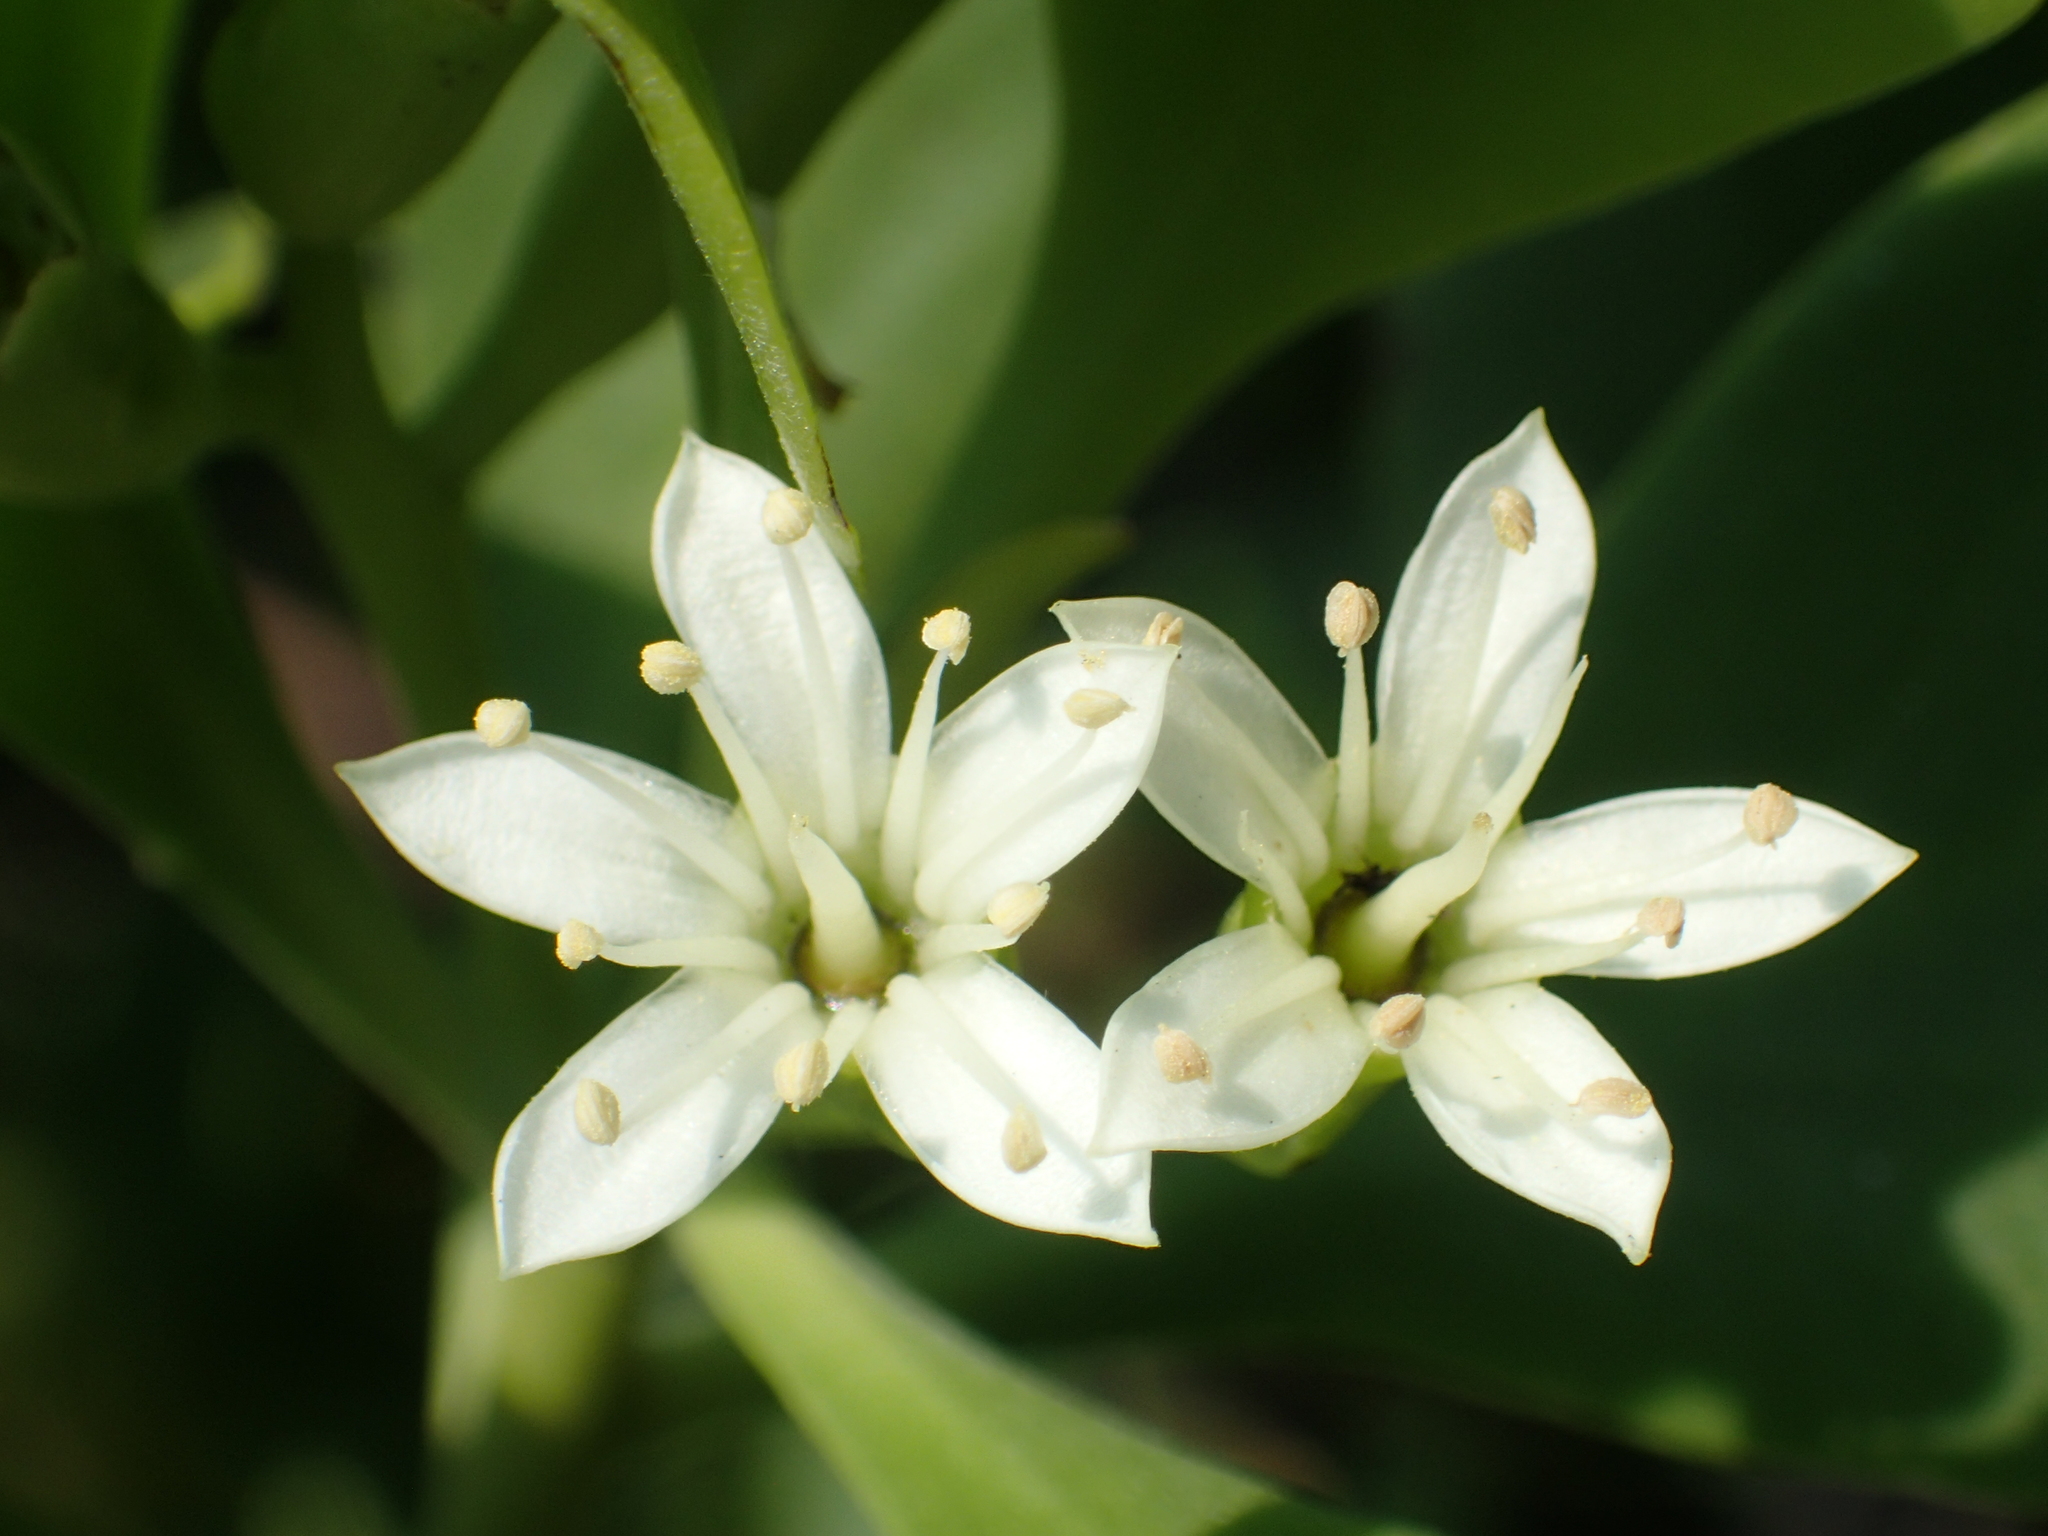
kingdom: Plantae
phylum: Tracheophyta
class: Magnoliopsida
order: Myrtales
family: Combretaceae
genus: Lumnitzera
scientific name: Lumnitzera racemosa
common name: White-flowered black mangrove
